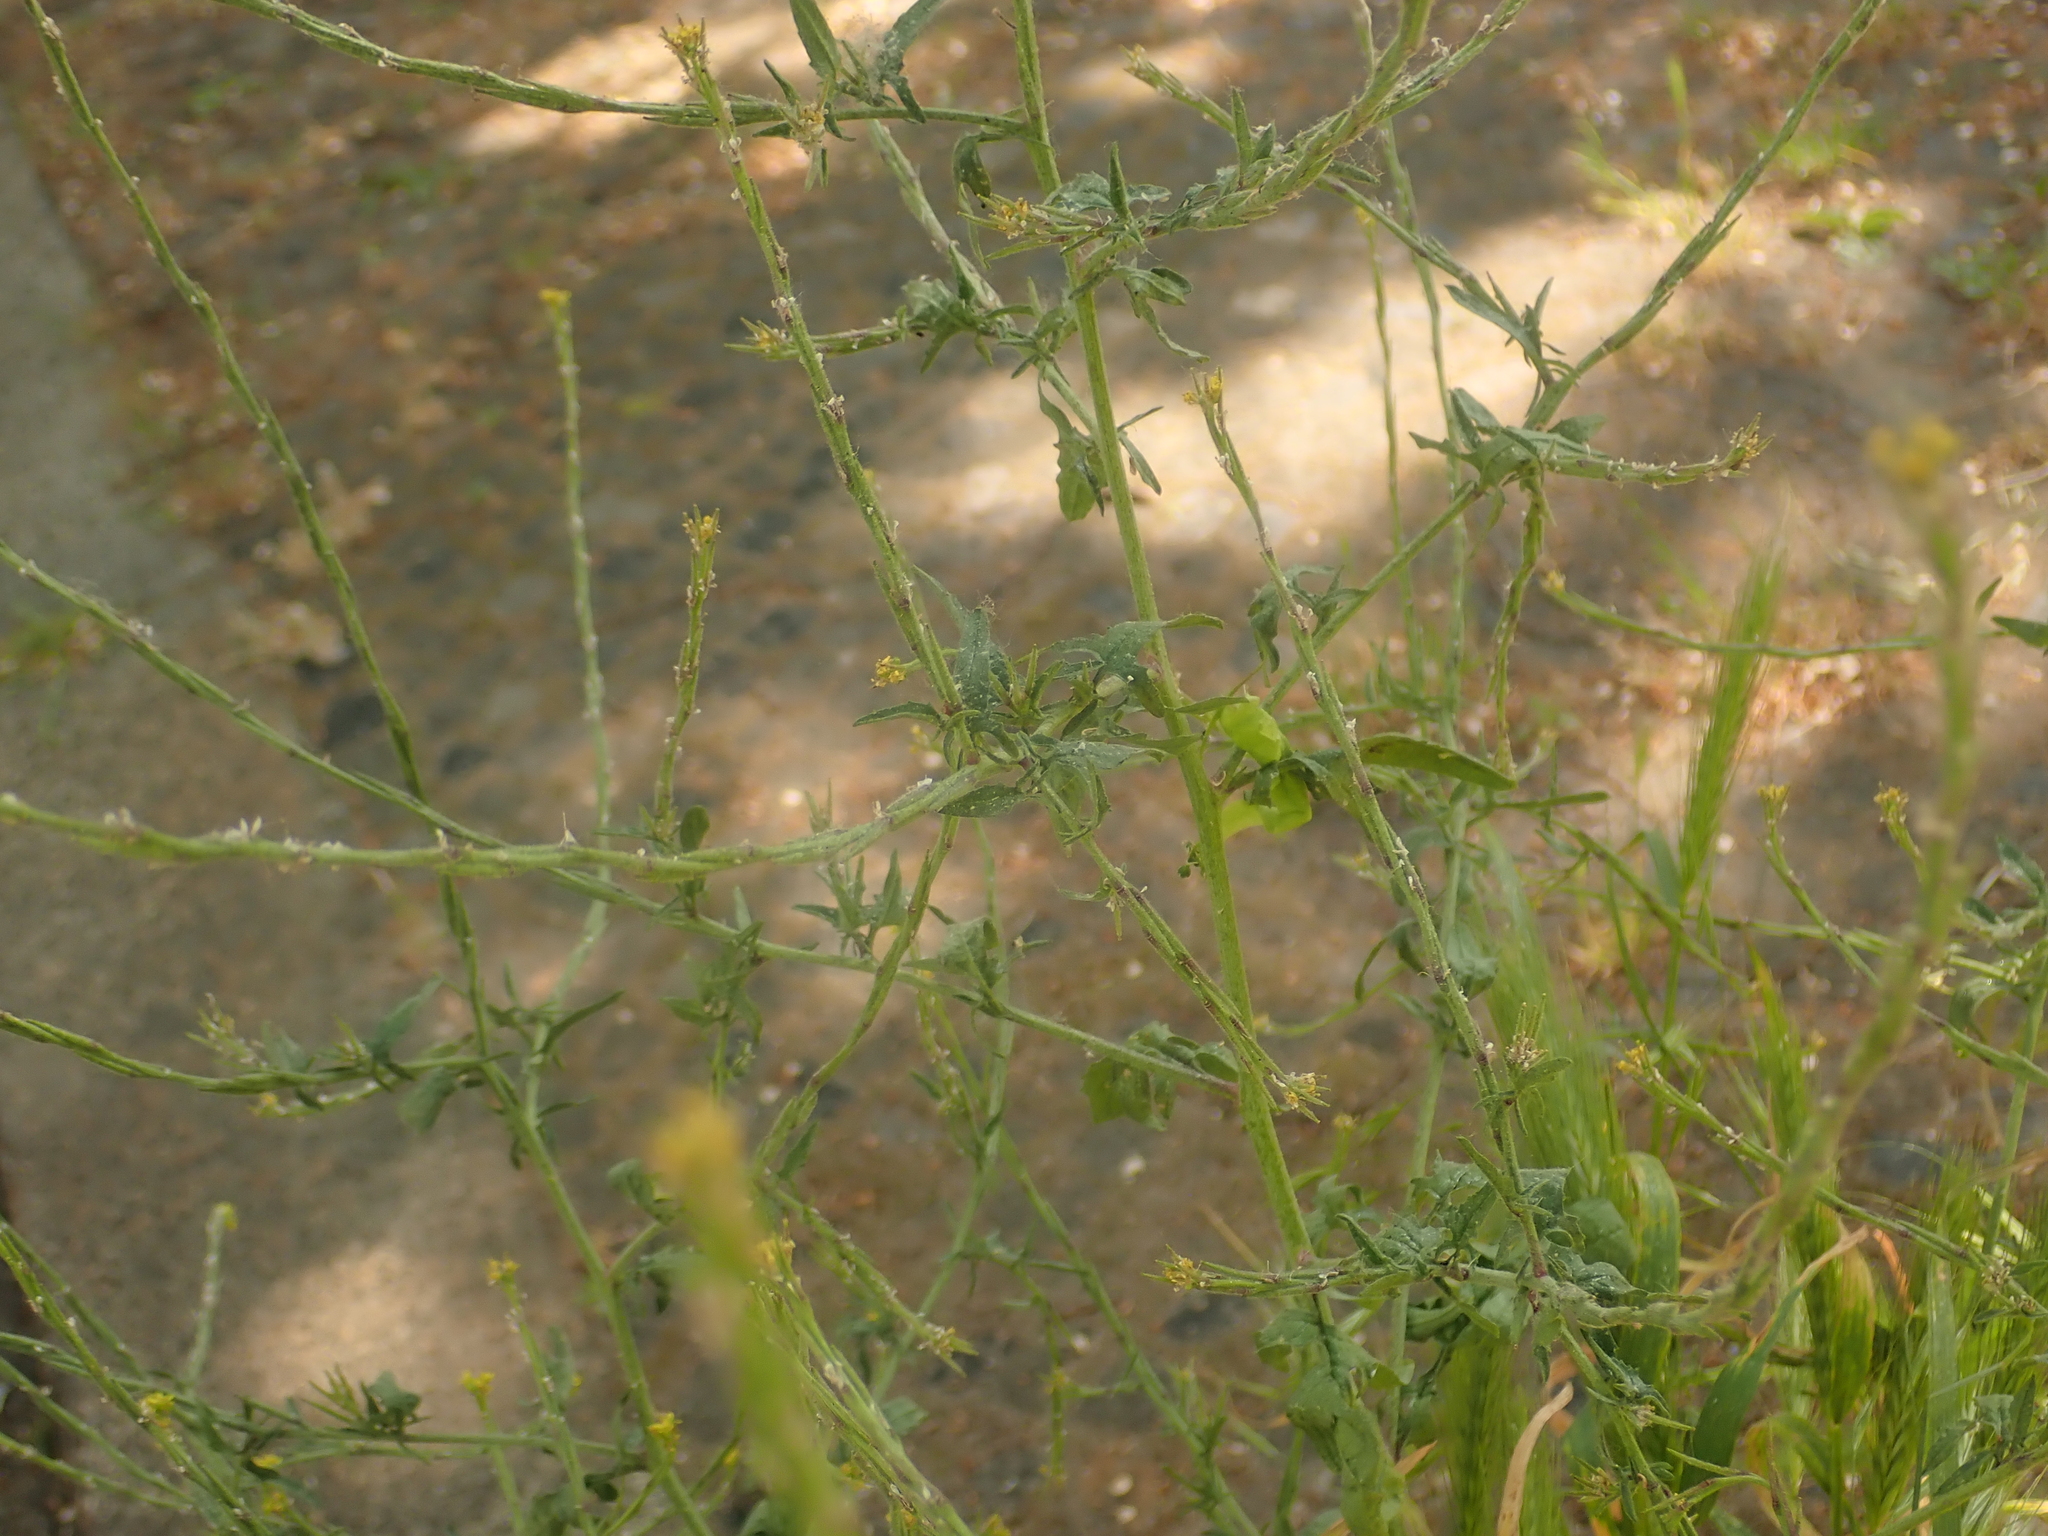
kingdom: Plantae
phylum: Tracheophyta
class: Magnoliopsida
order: Brassicales
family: Brassicaceae
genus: Sisymbrium
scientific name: Sisymbrium officinale
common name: Hedge mustard
